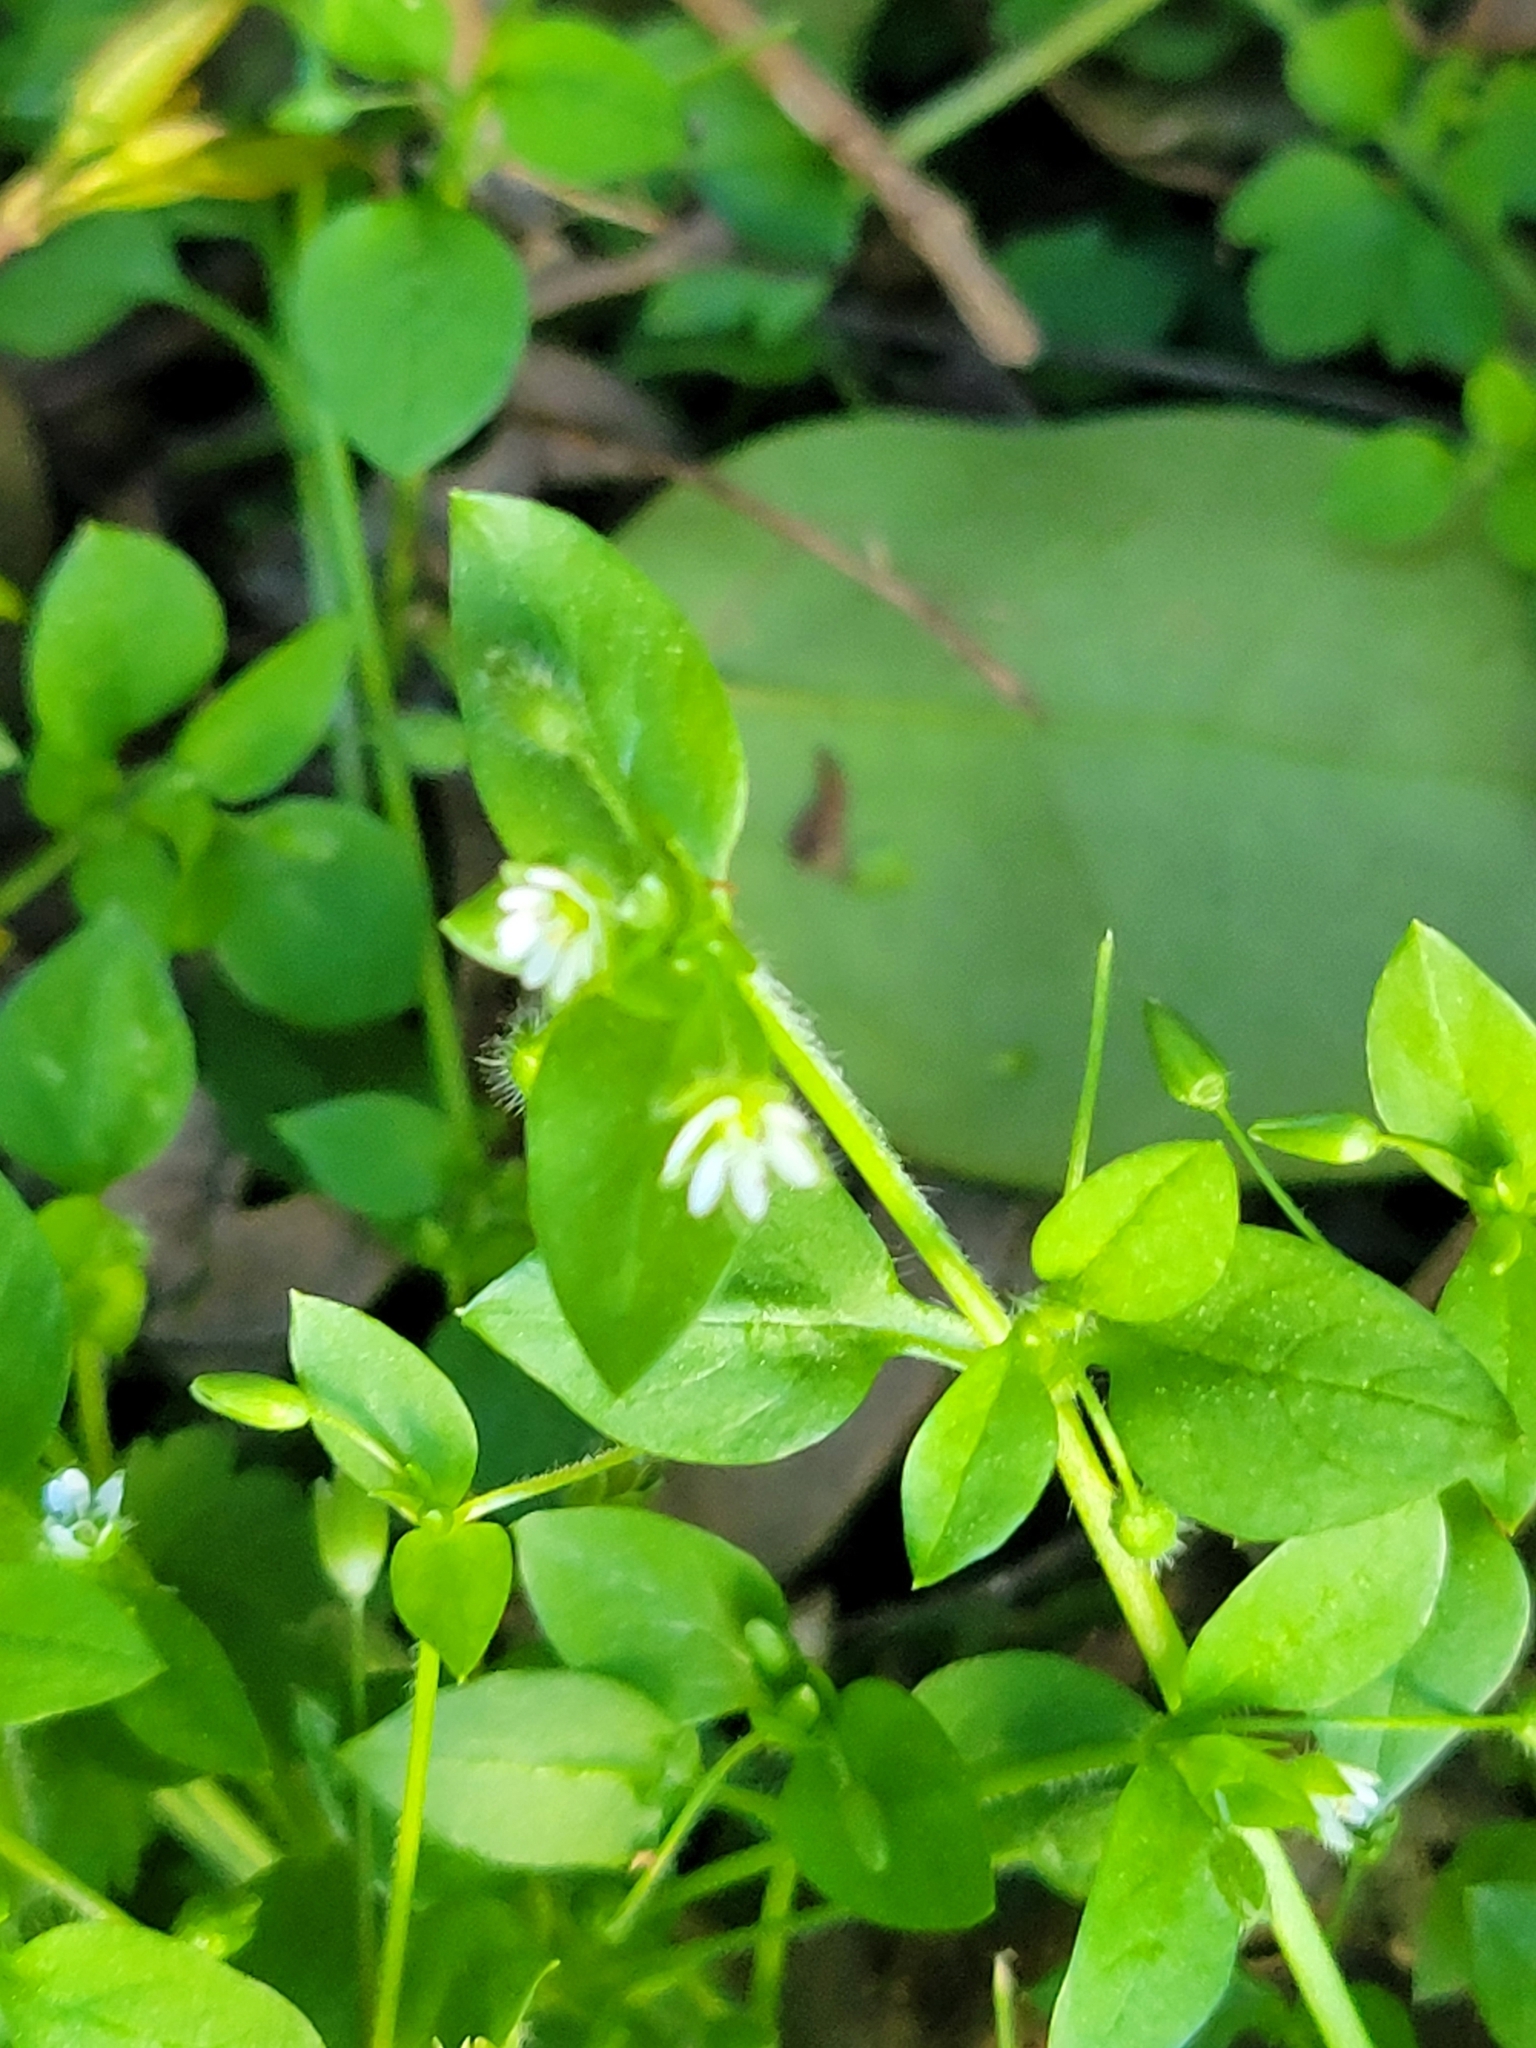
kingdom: Plantae
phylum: Tracheophyta
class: Magnoliopsida
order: Caryophyllales
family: Caryophyllaceae
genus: Stellaria
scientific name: Stellaria media
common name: Common chickweed
